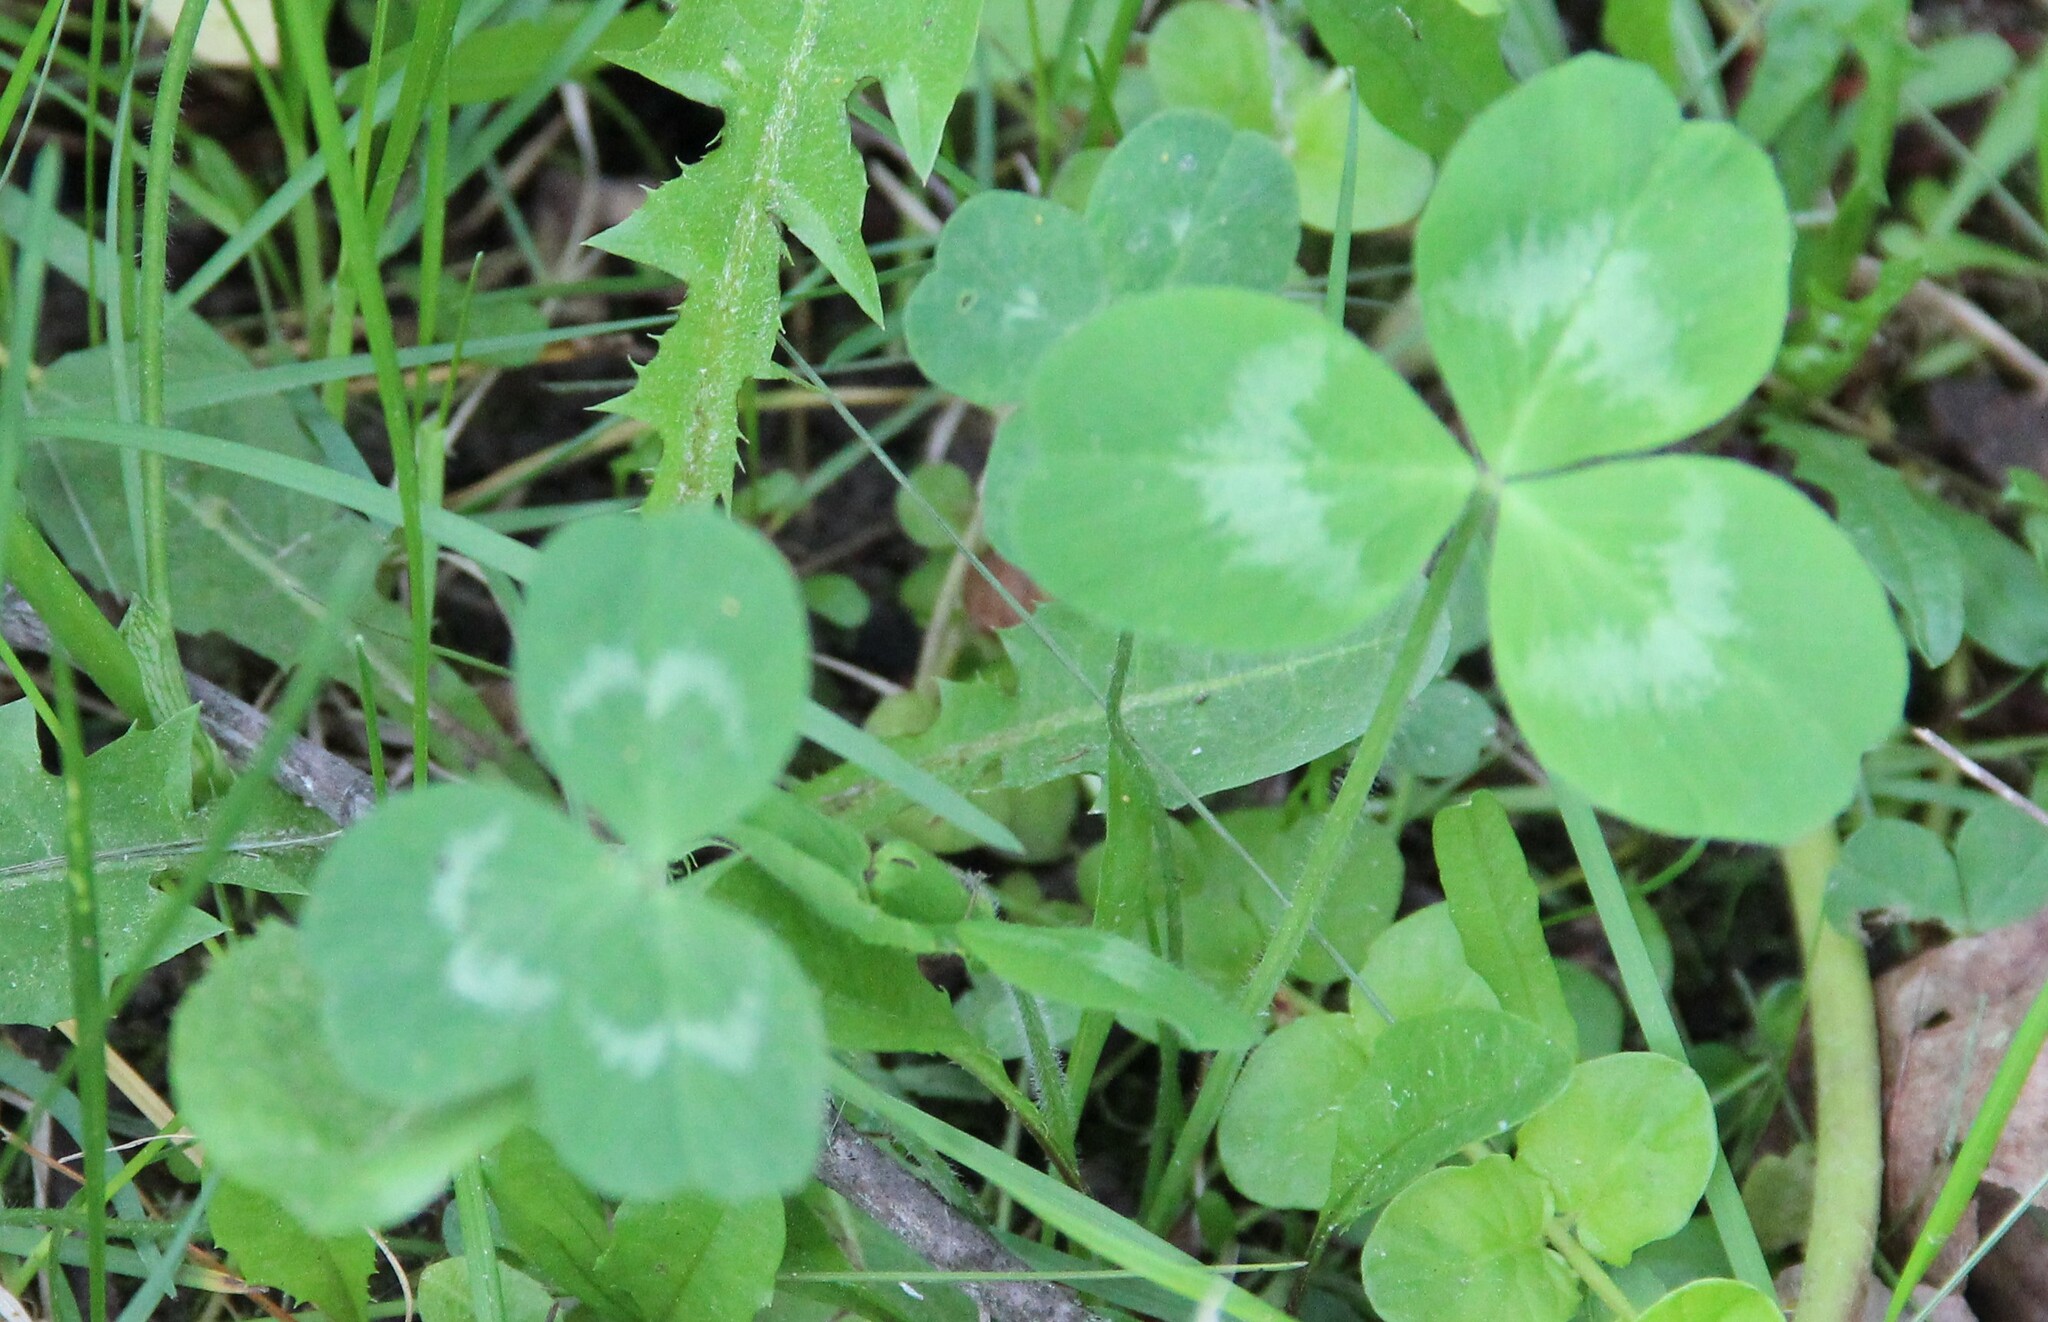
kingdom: Plantae
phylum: Tracheophyta
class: Magnoliopsida
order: Fabales
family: Fabaceae
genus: Trifolium
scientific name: Trifolium repens
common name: White clover
